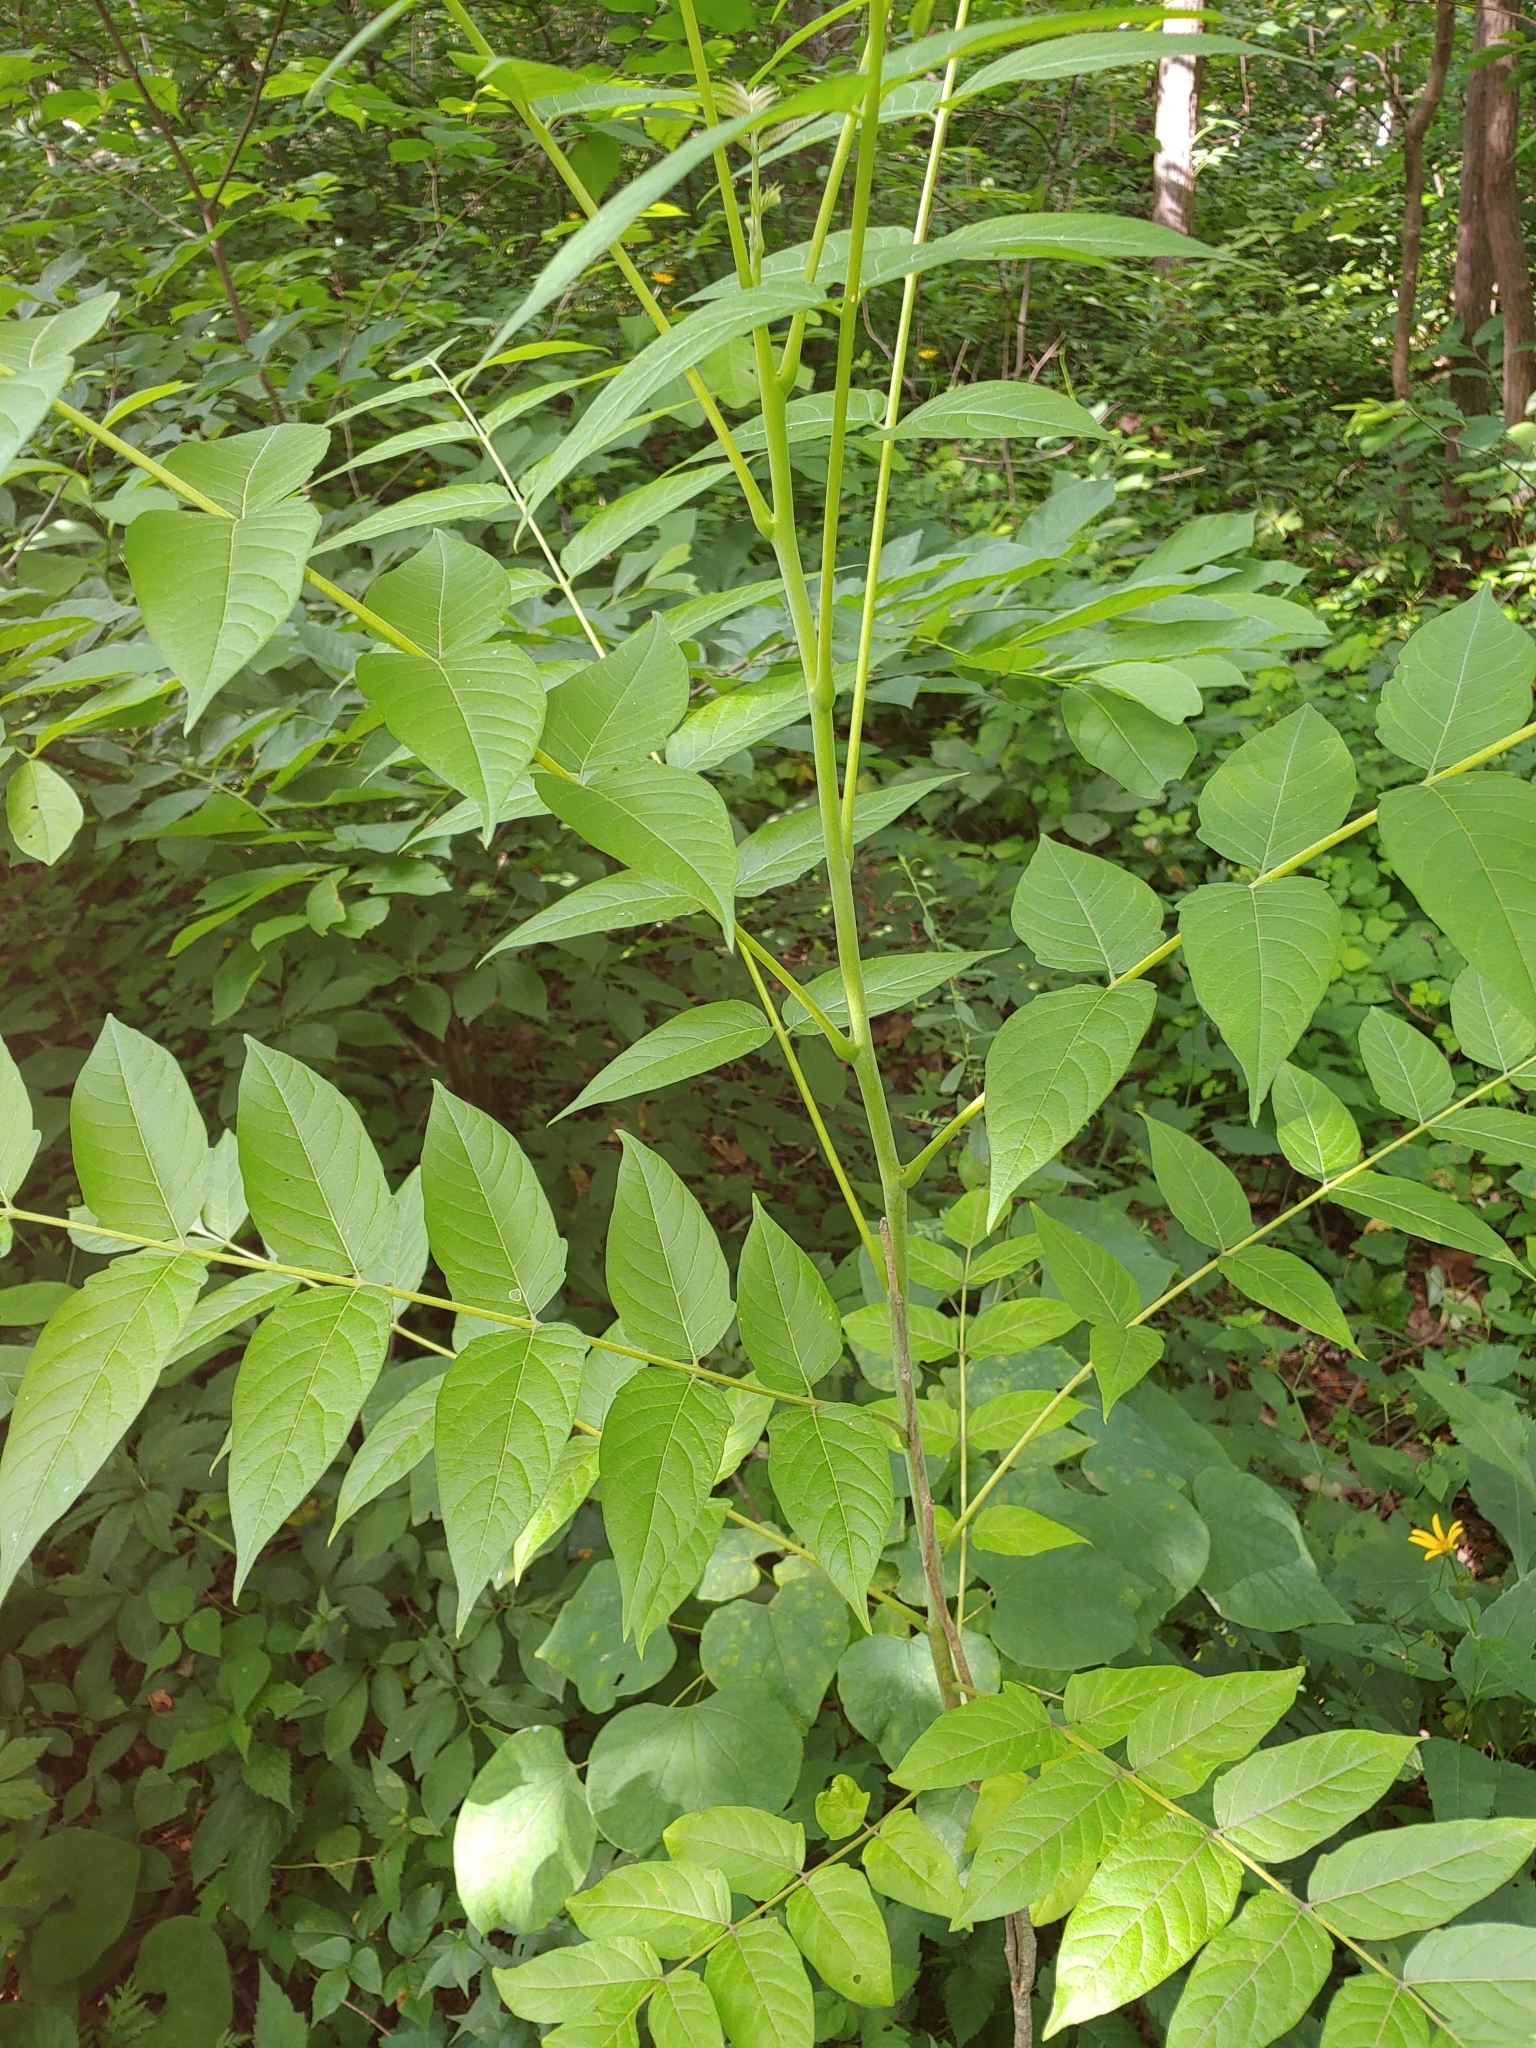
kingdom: Plantae
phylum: Tracheophyta
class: Magnoliopsida
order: Sapindales
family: Simaroubaceae
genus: Ailanthus
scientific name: Ailanthus altissima
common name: Tree-of-heaven
